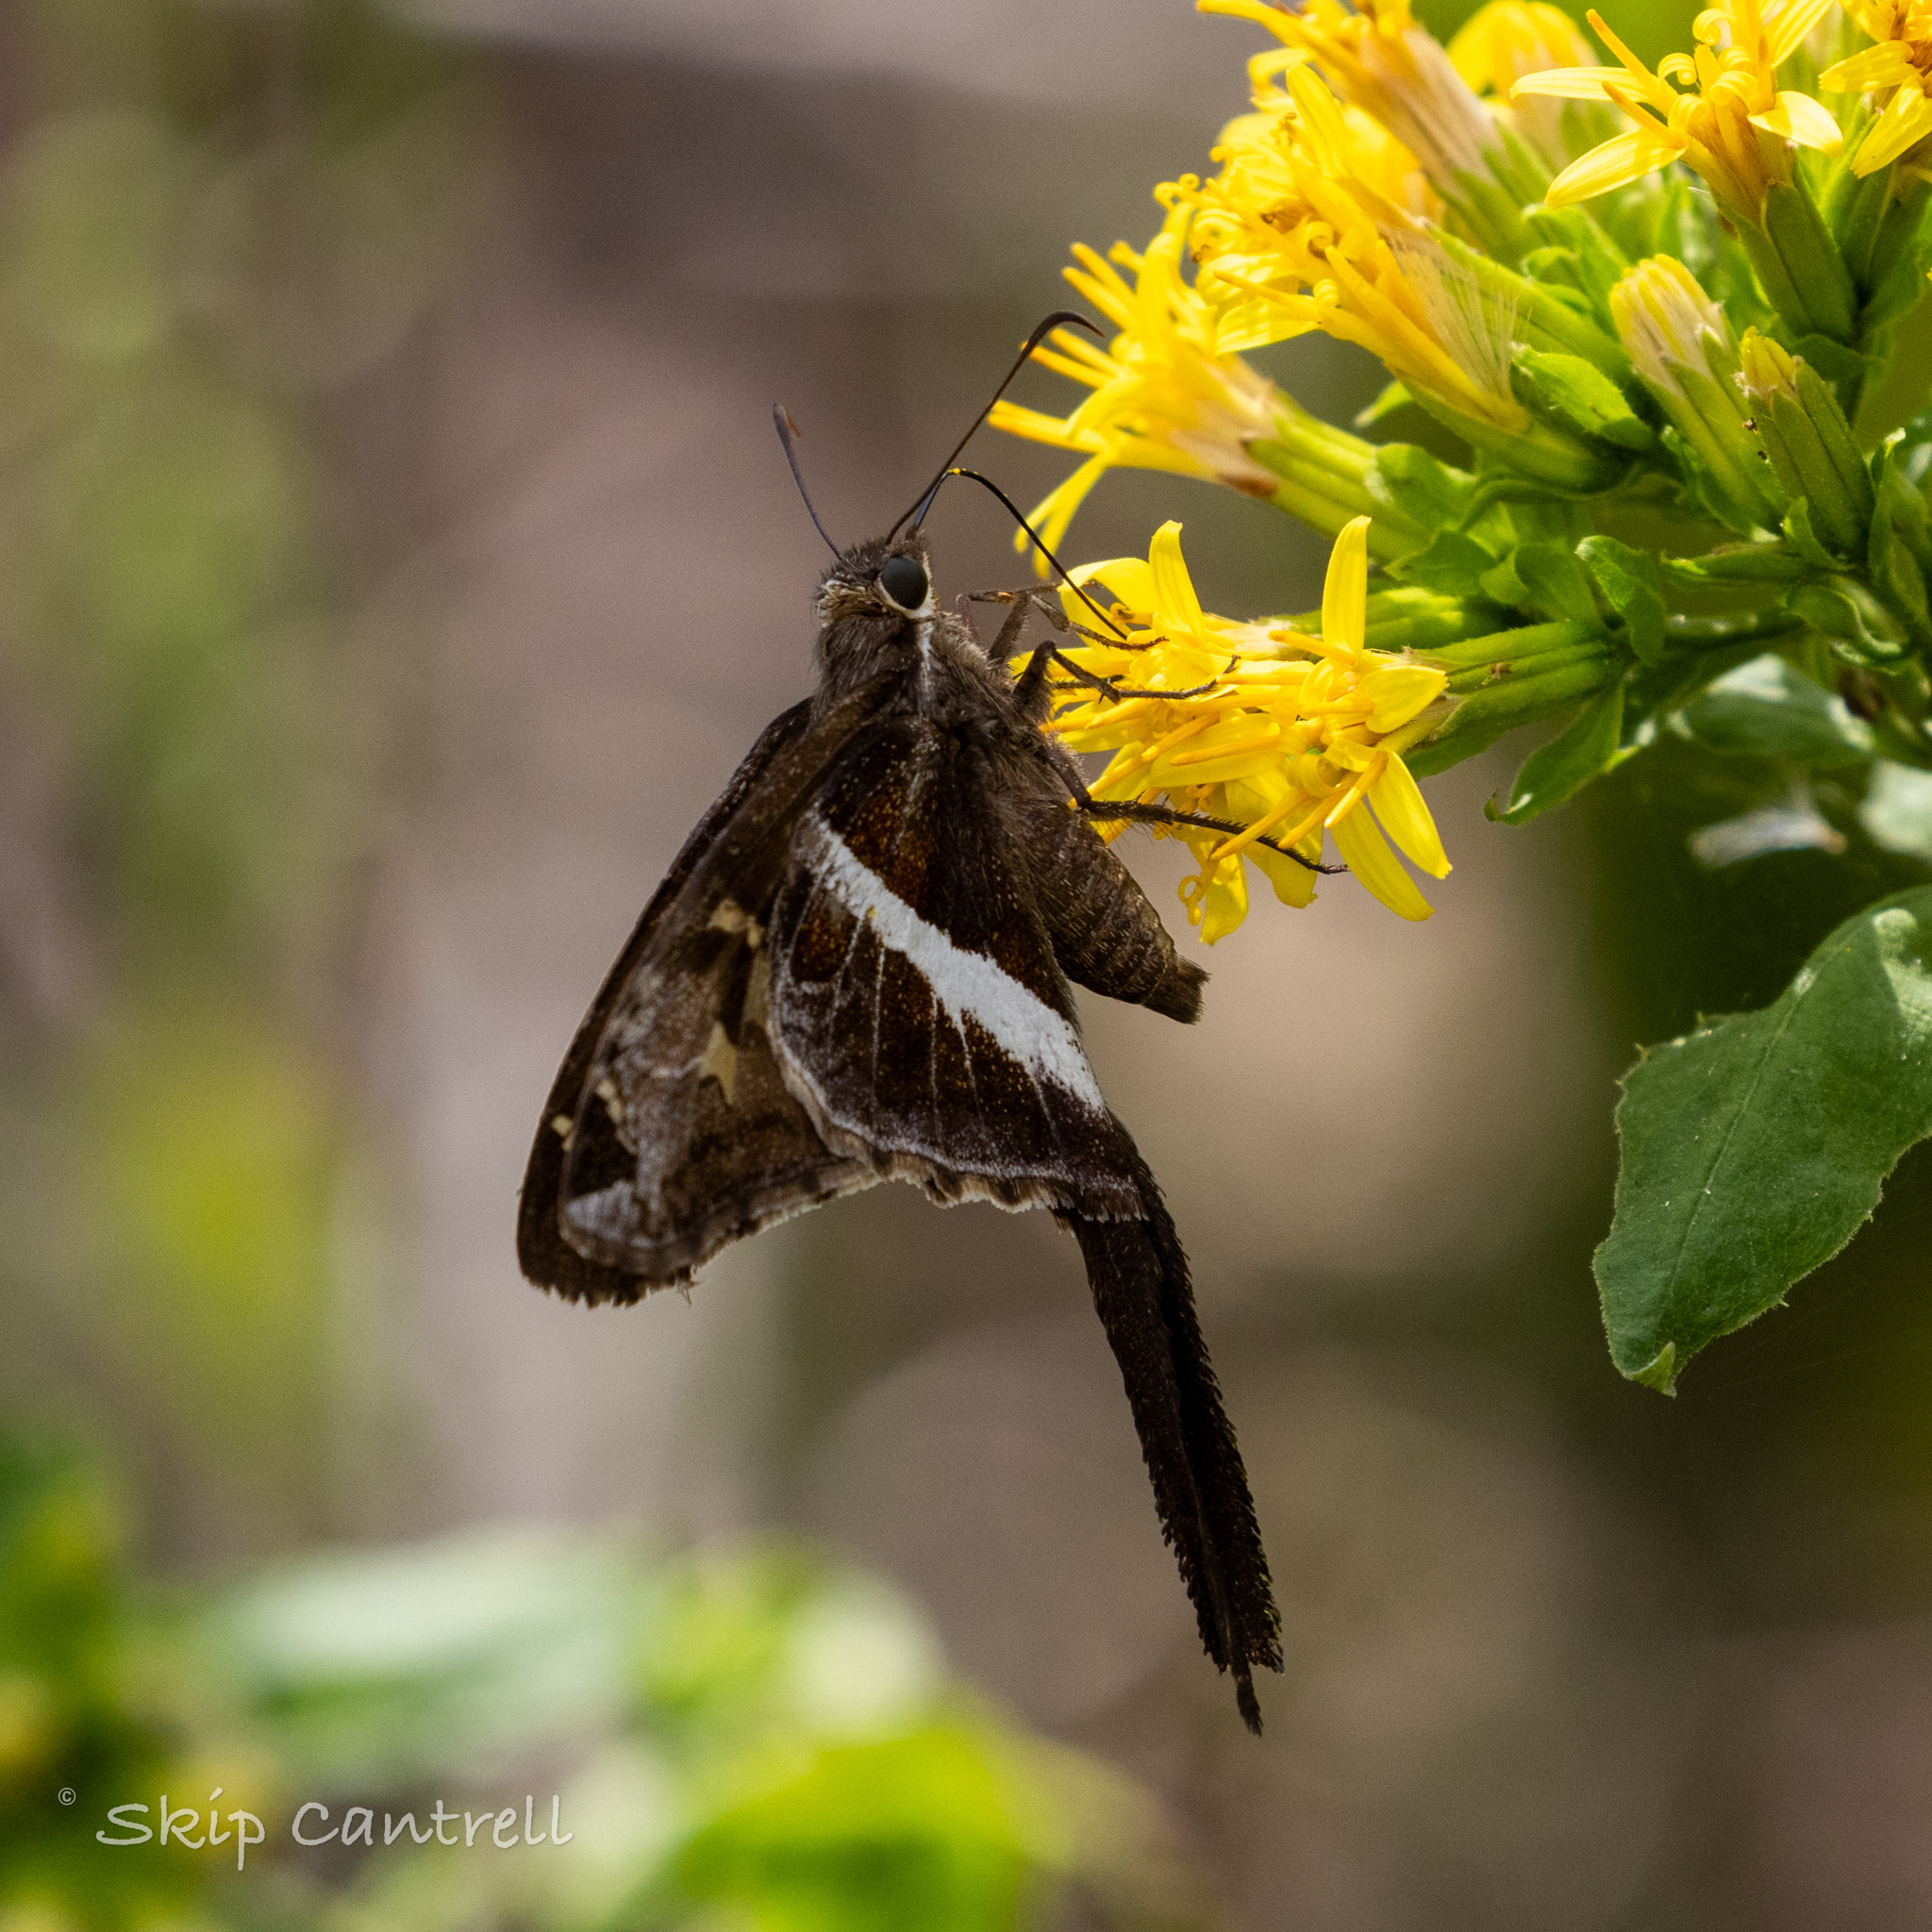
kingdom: Animalia
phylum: Arthropoda
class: Insecta
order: Lepidoptera
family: Hesperiidae
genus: Chioides
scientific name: Chioides catillus
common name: Silverbanded skipper
